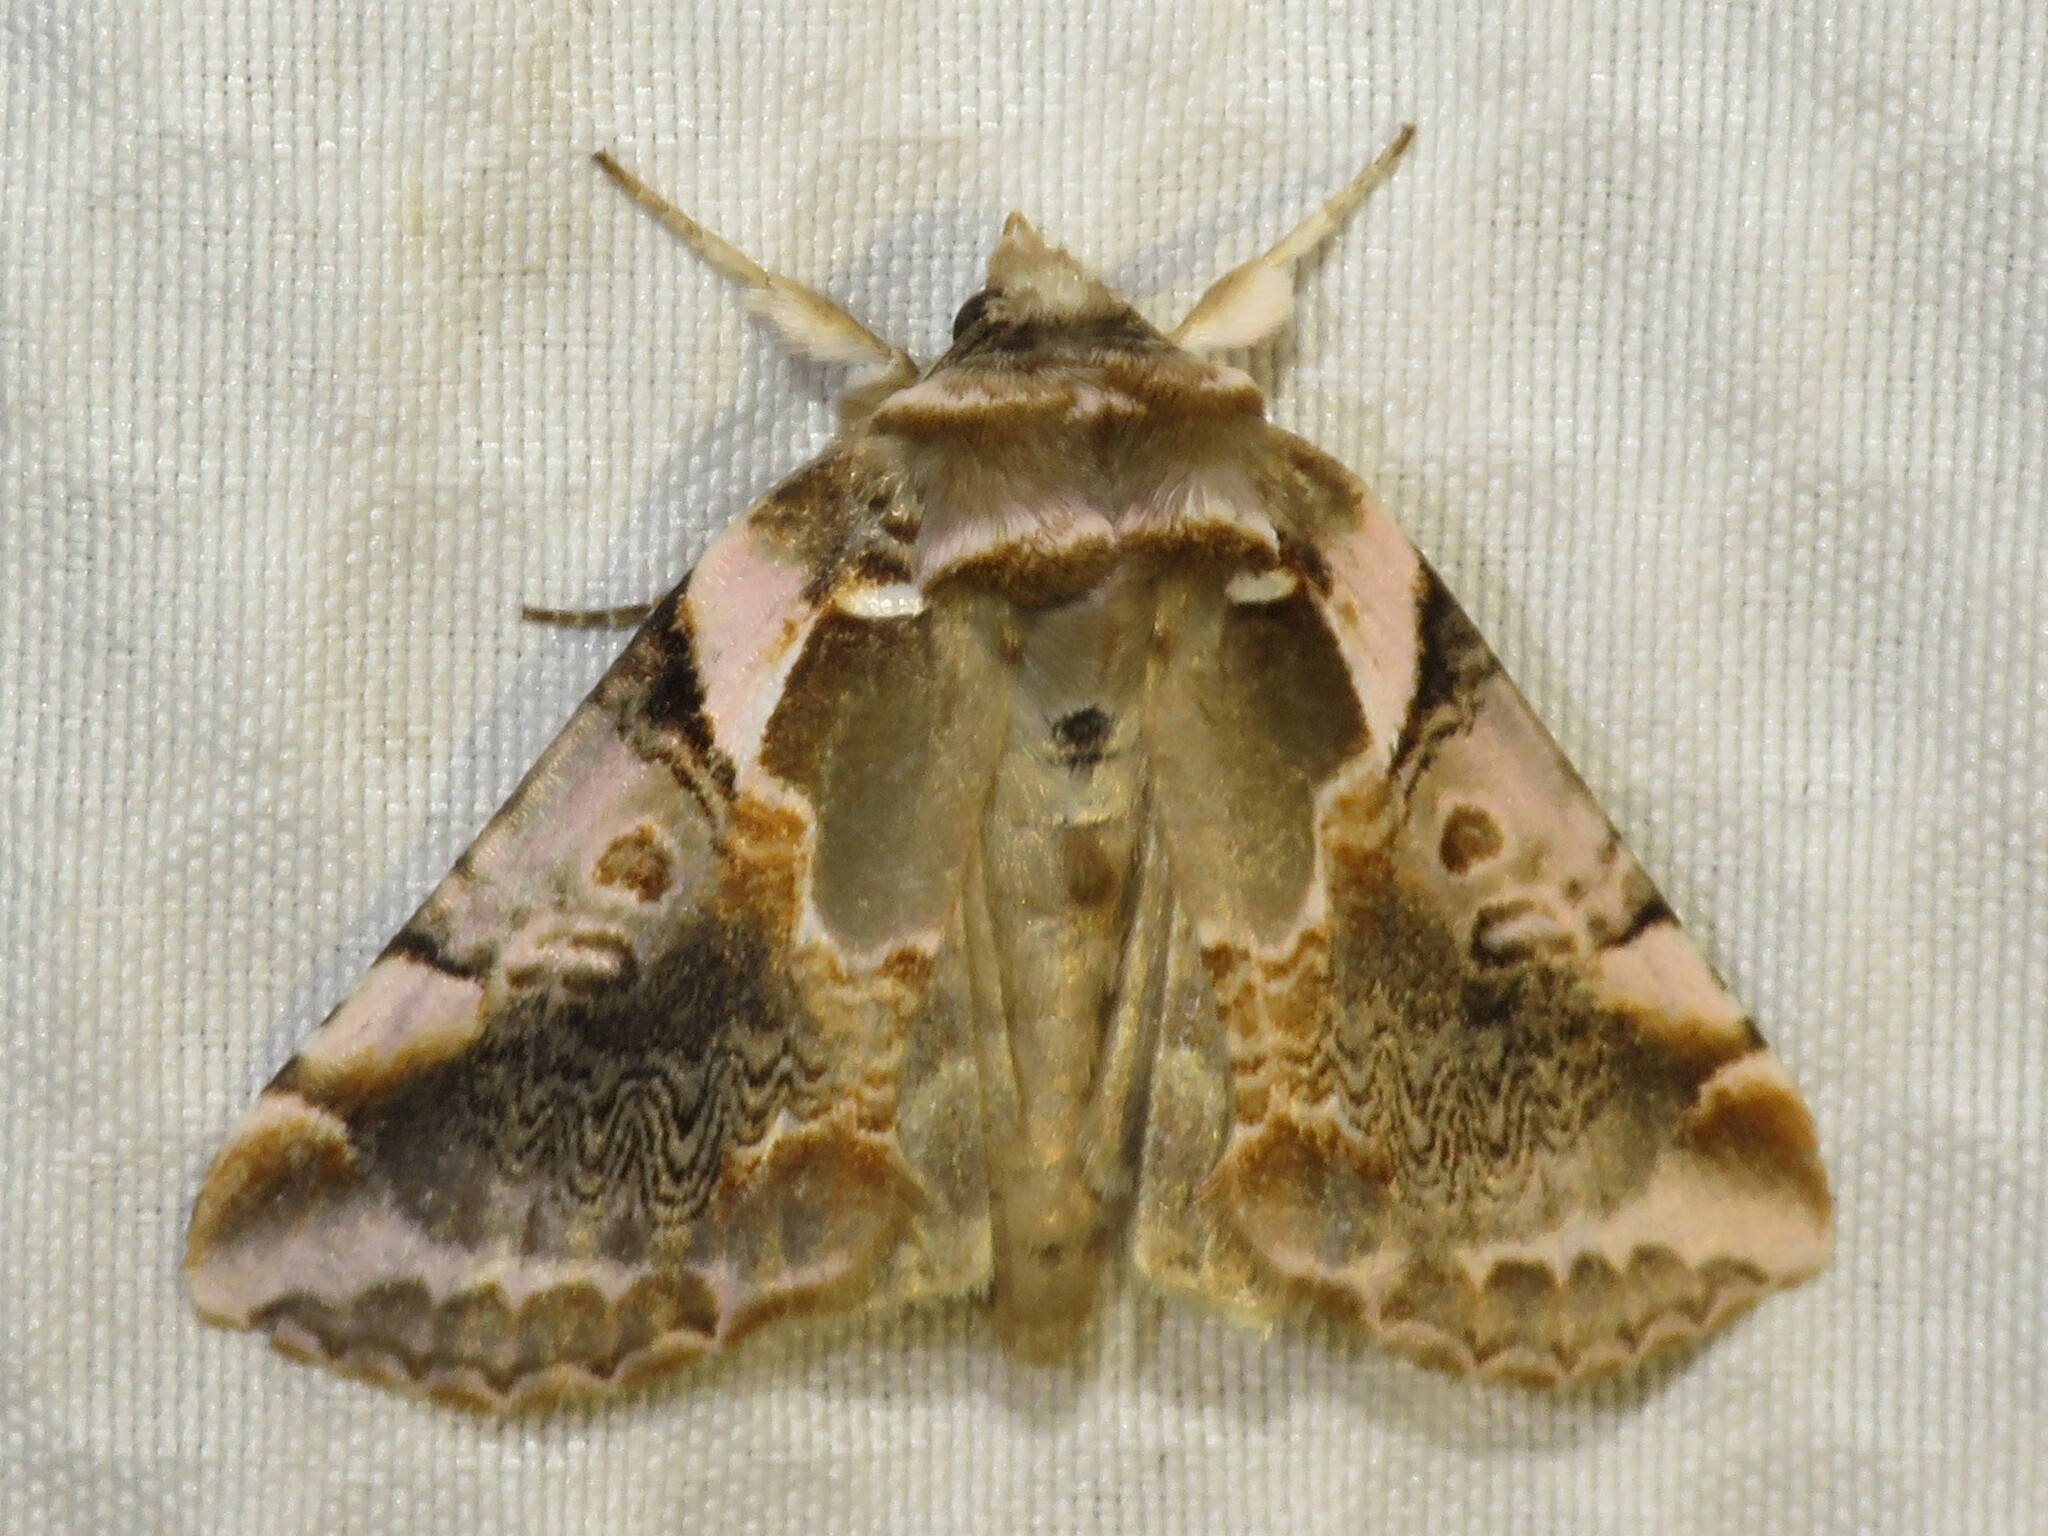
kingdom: Animalia
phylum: Arthropoda
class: Insecta
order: Lepidoptera
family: Drepanidae
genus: Habrosyne
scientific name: Habrosyne gloriosa
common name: Glorious habrosyne moth
